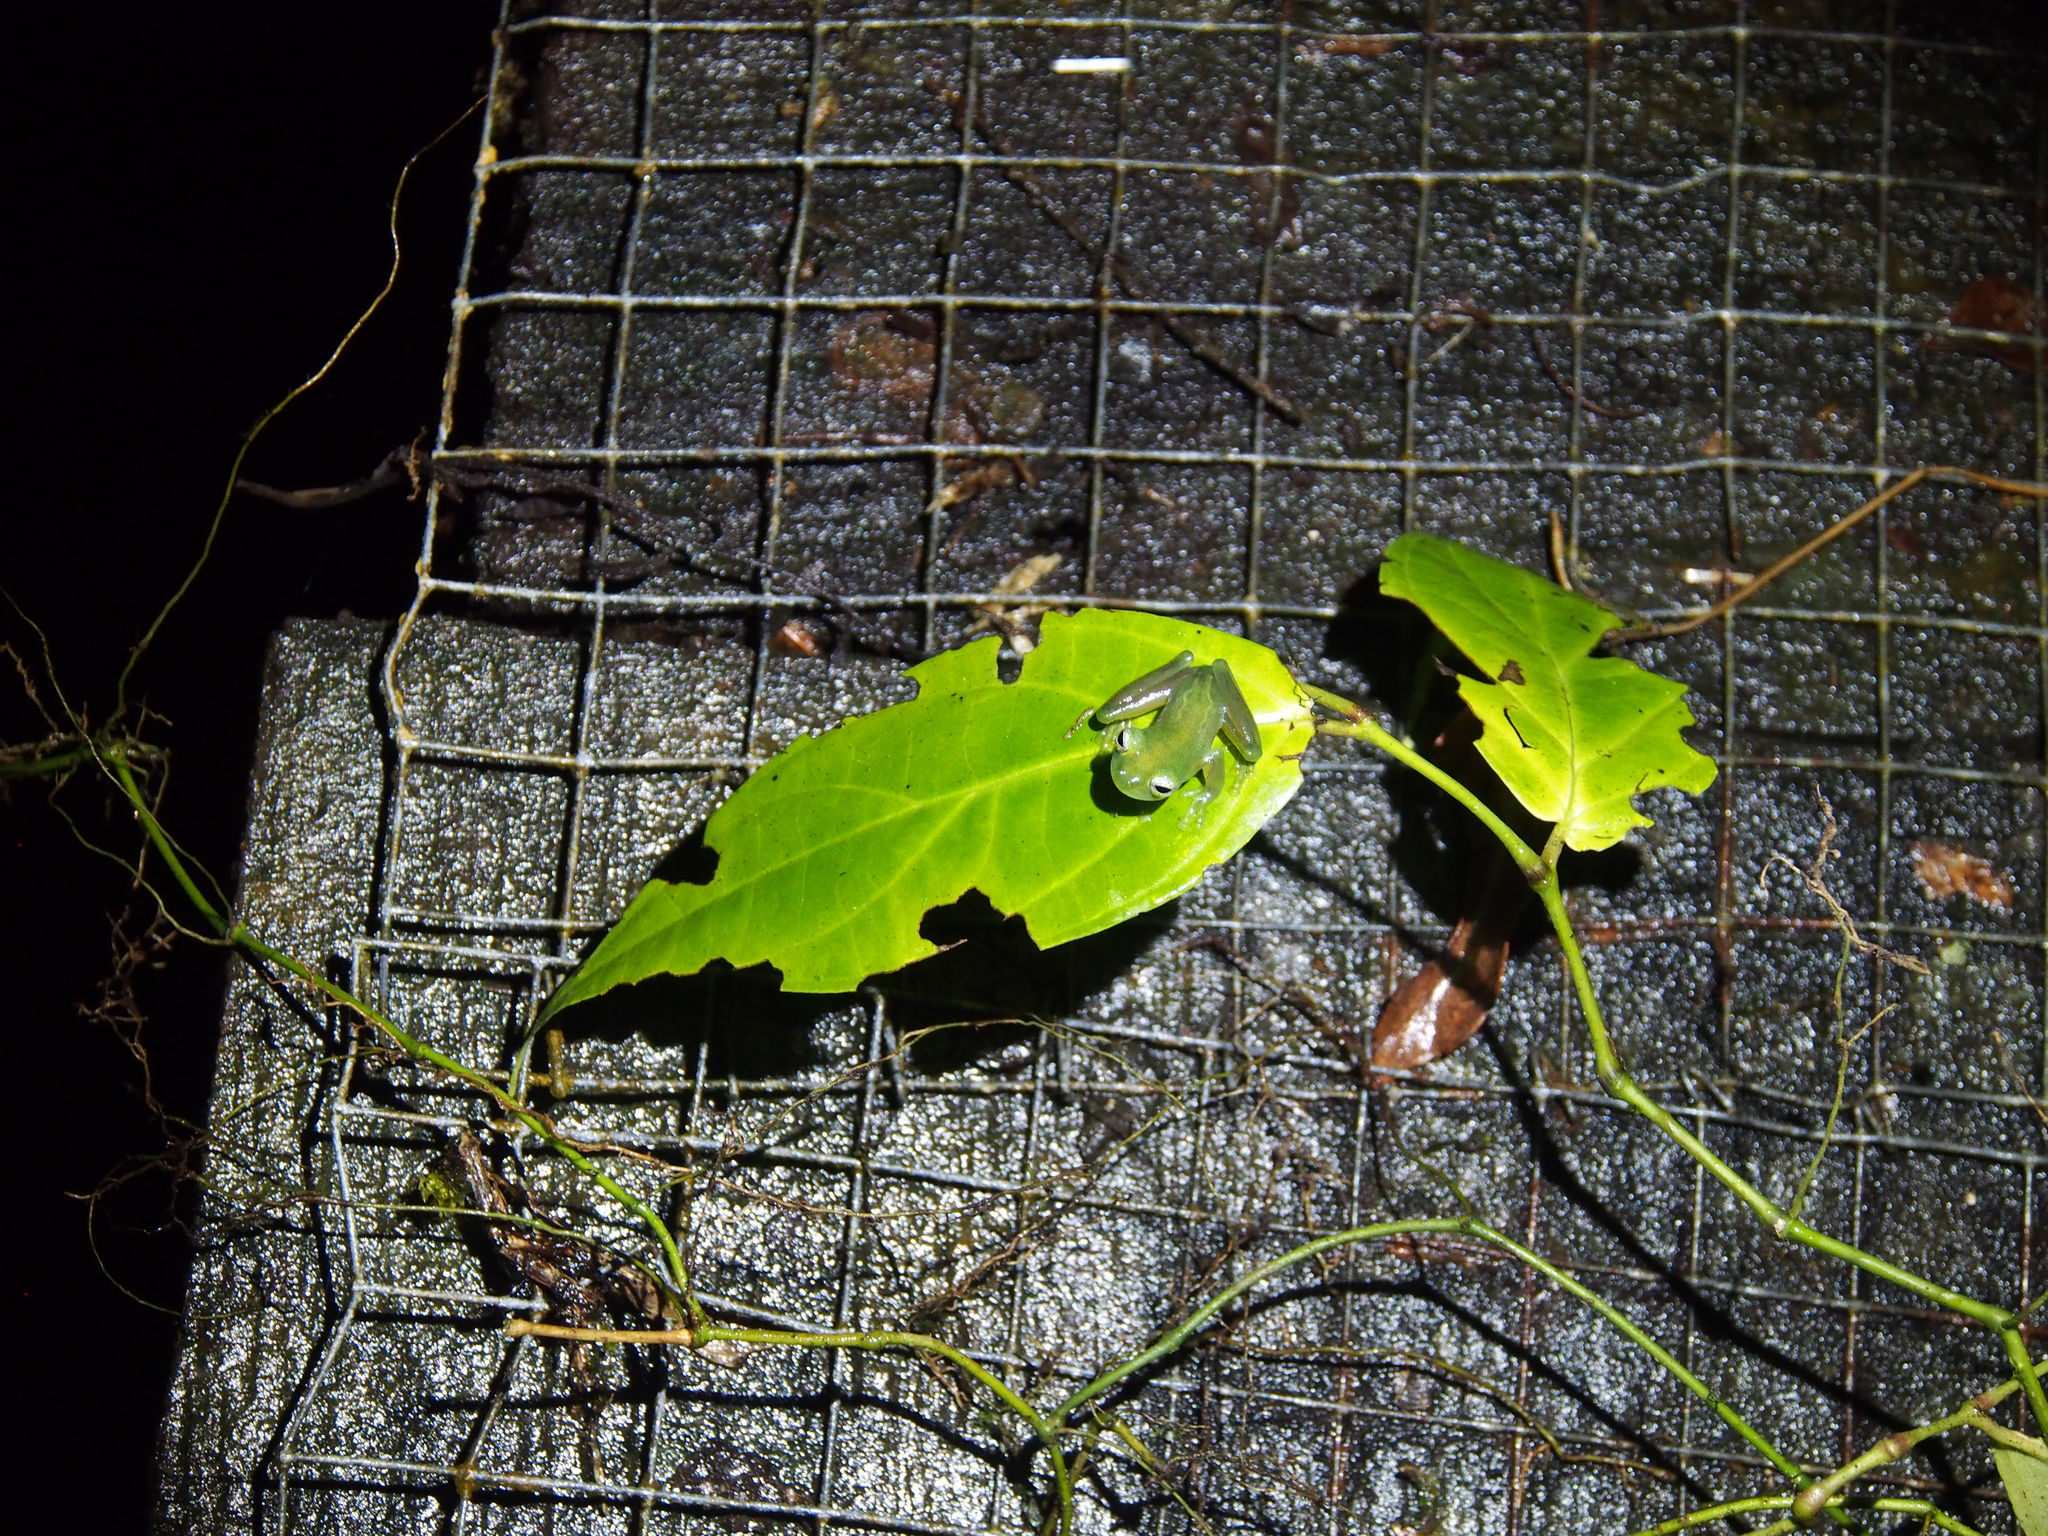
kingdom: Animalia
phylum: Chordata
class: Amphibia
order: Anura
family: Centrolenidae
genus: Sachatamia
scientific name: Sachatamia ilex
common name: Rana de cristal de ojo esplendoroso
